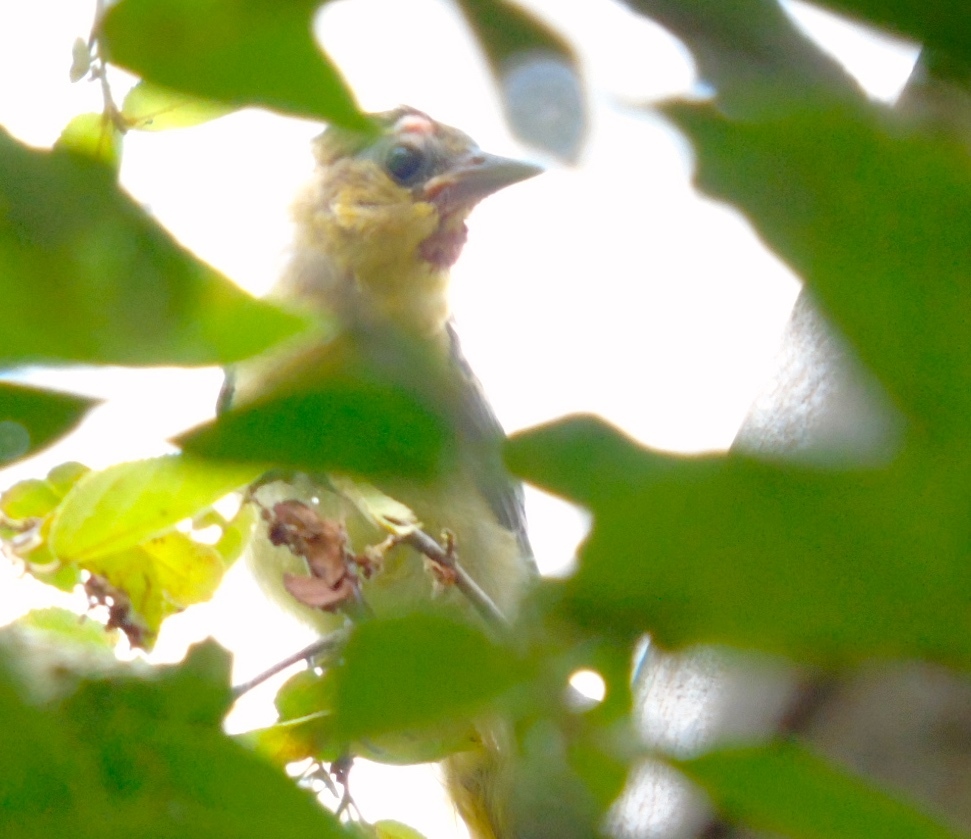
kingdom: Animalia
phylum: Chordata
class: Aves
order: Passeriformes
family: Icteridae
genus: Icterus
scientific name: Icterus
